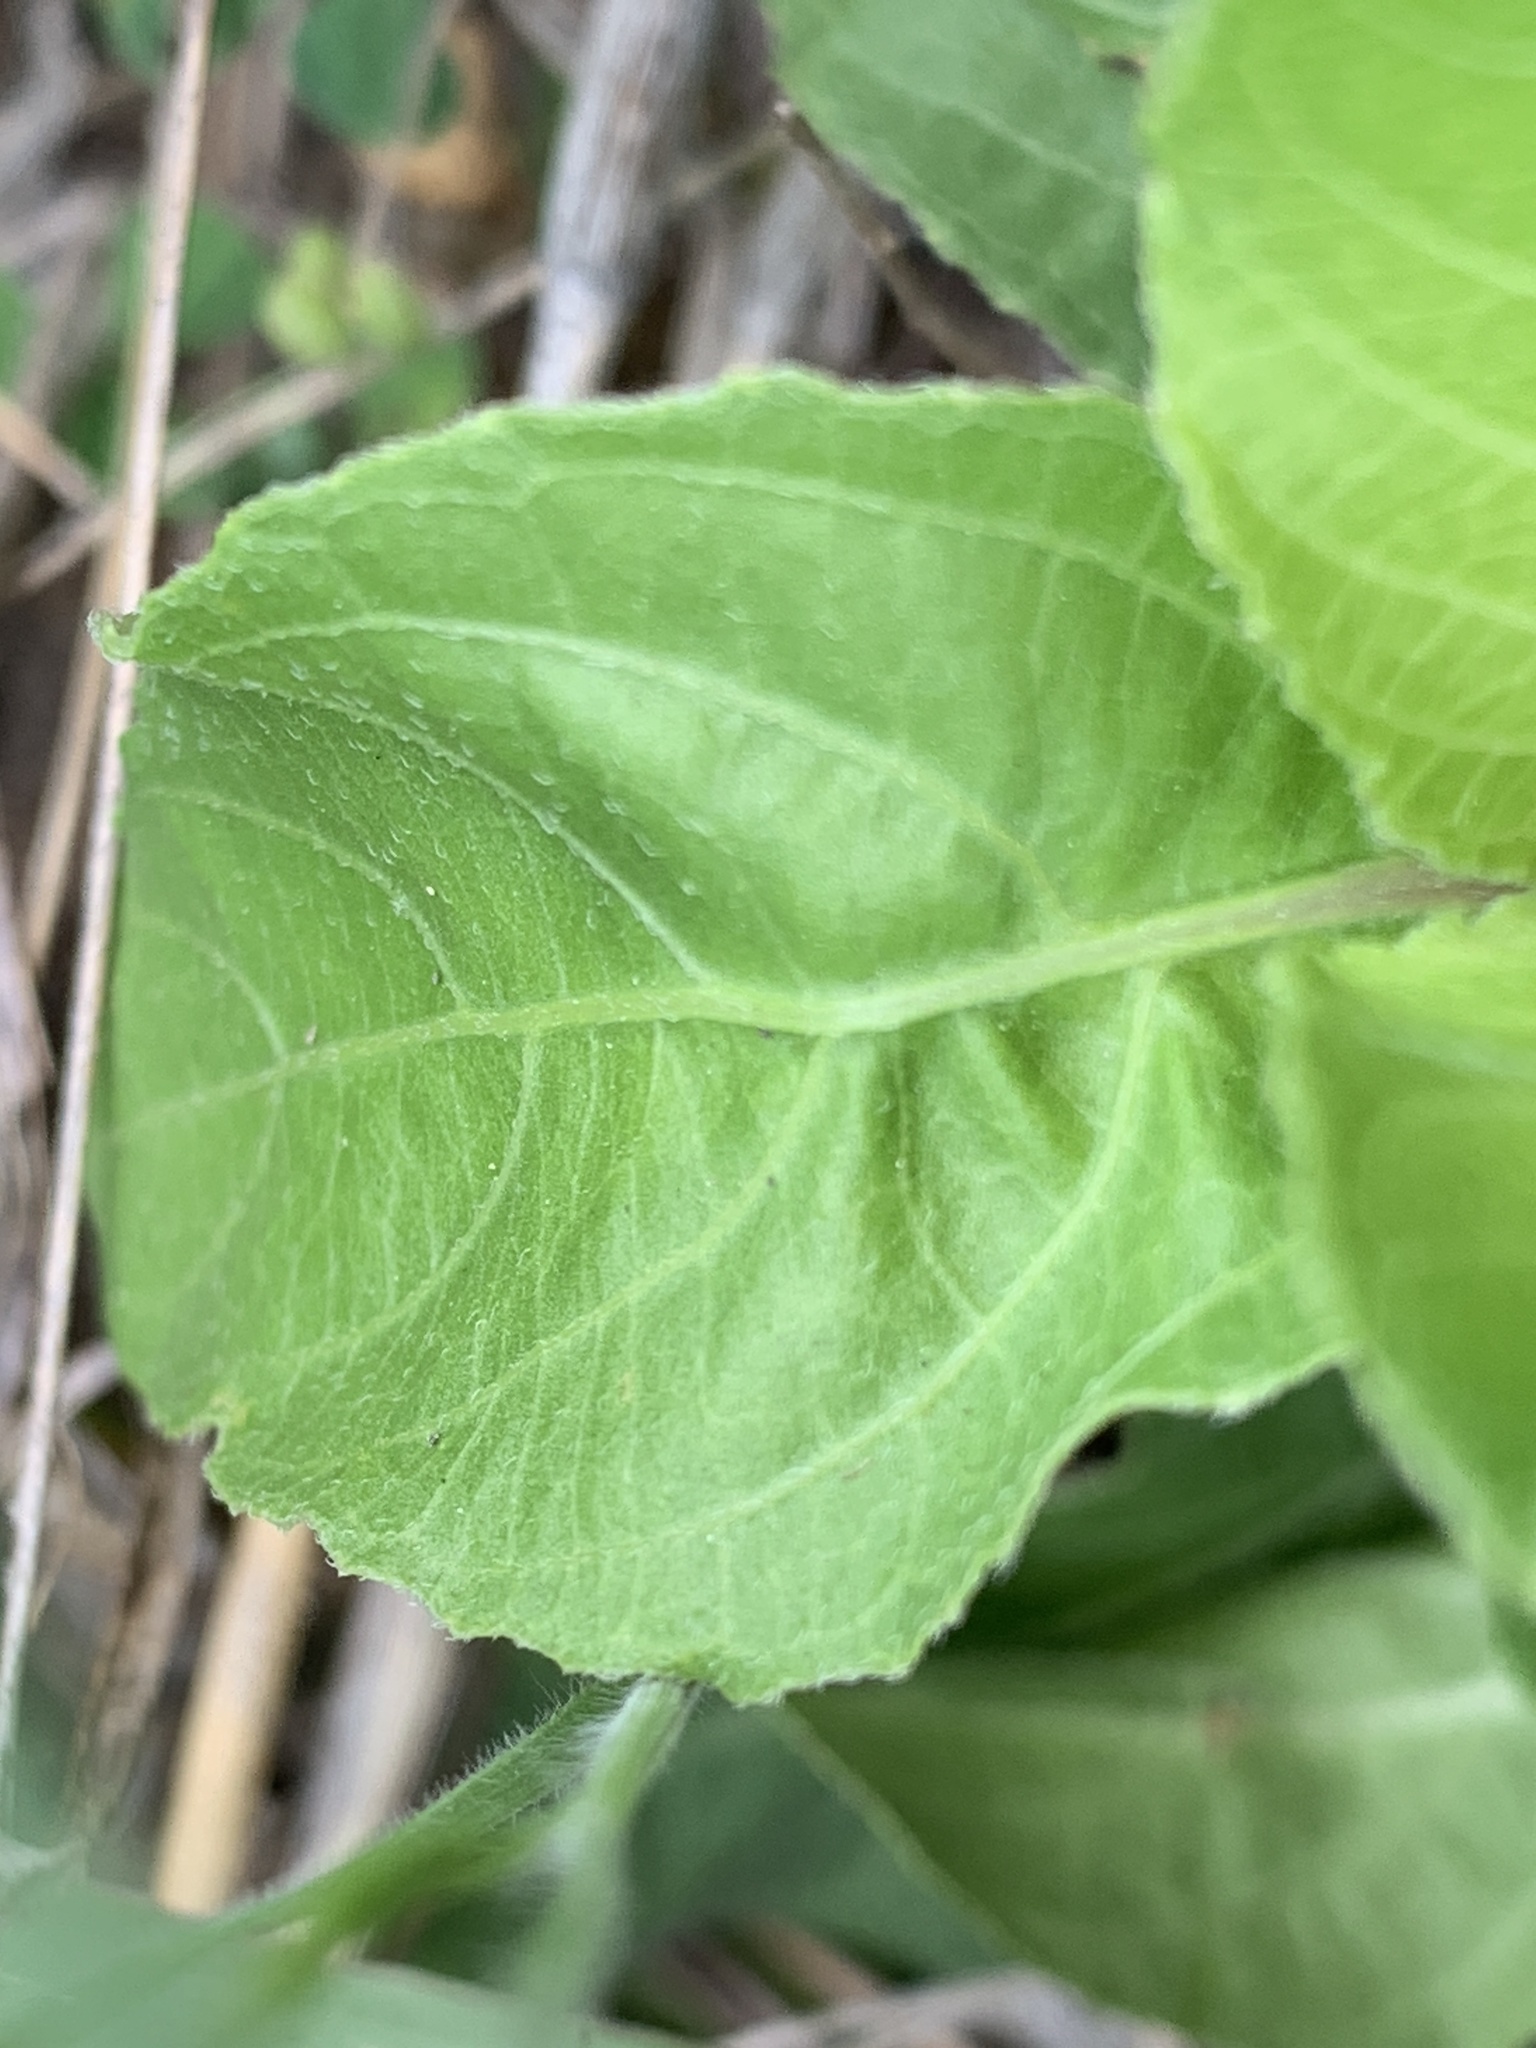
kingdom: Plantae
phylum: Tracheophyta
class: Magnoliopsida
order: Lamiales
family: Acanthaceae
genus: Ruellia
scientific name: Ruellia ciliatiflora
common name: Hairyflower wild petunia
